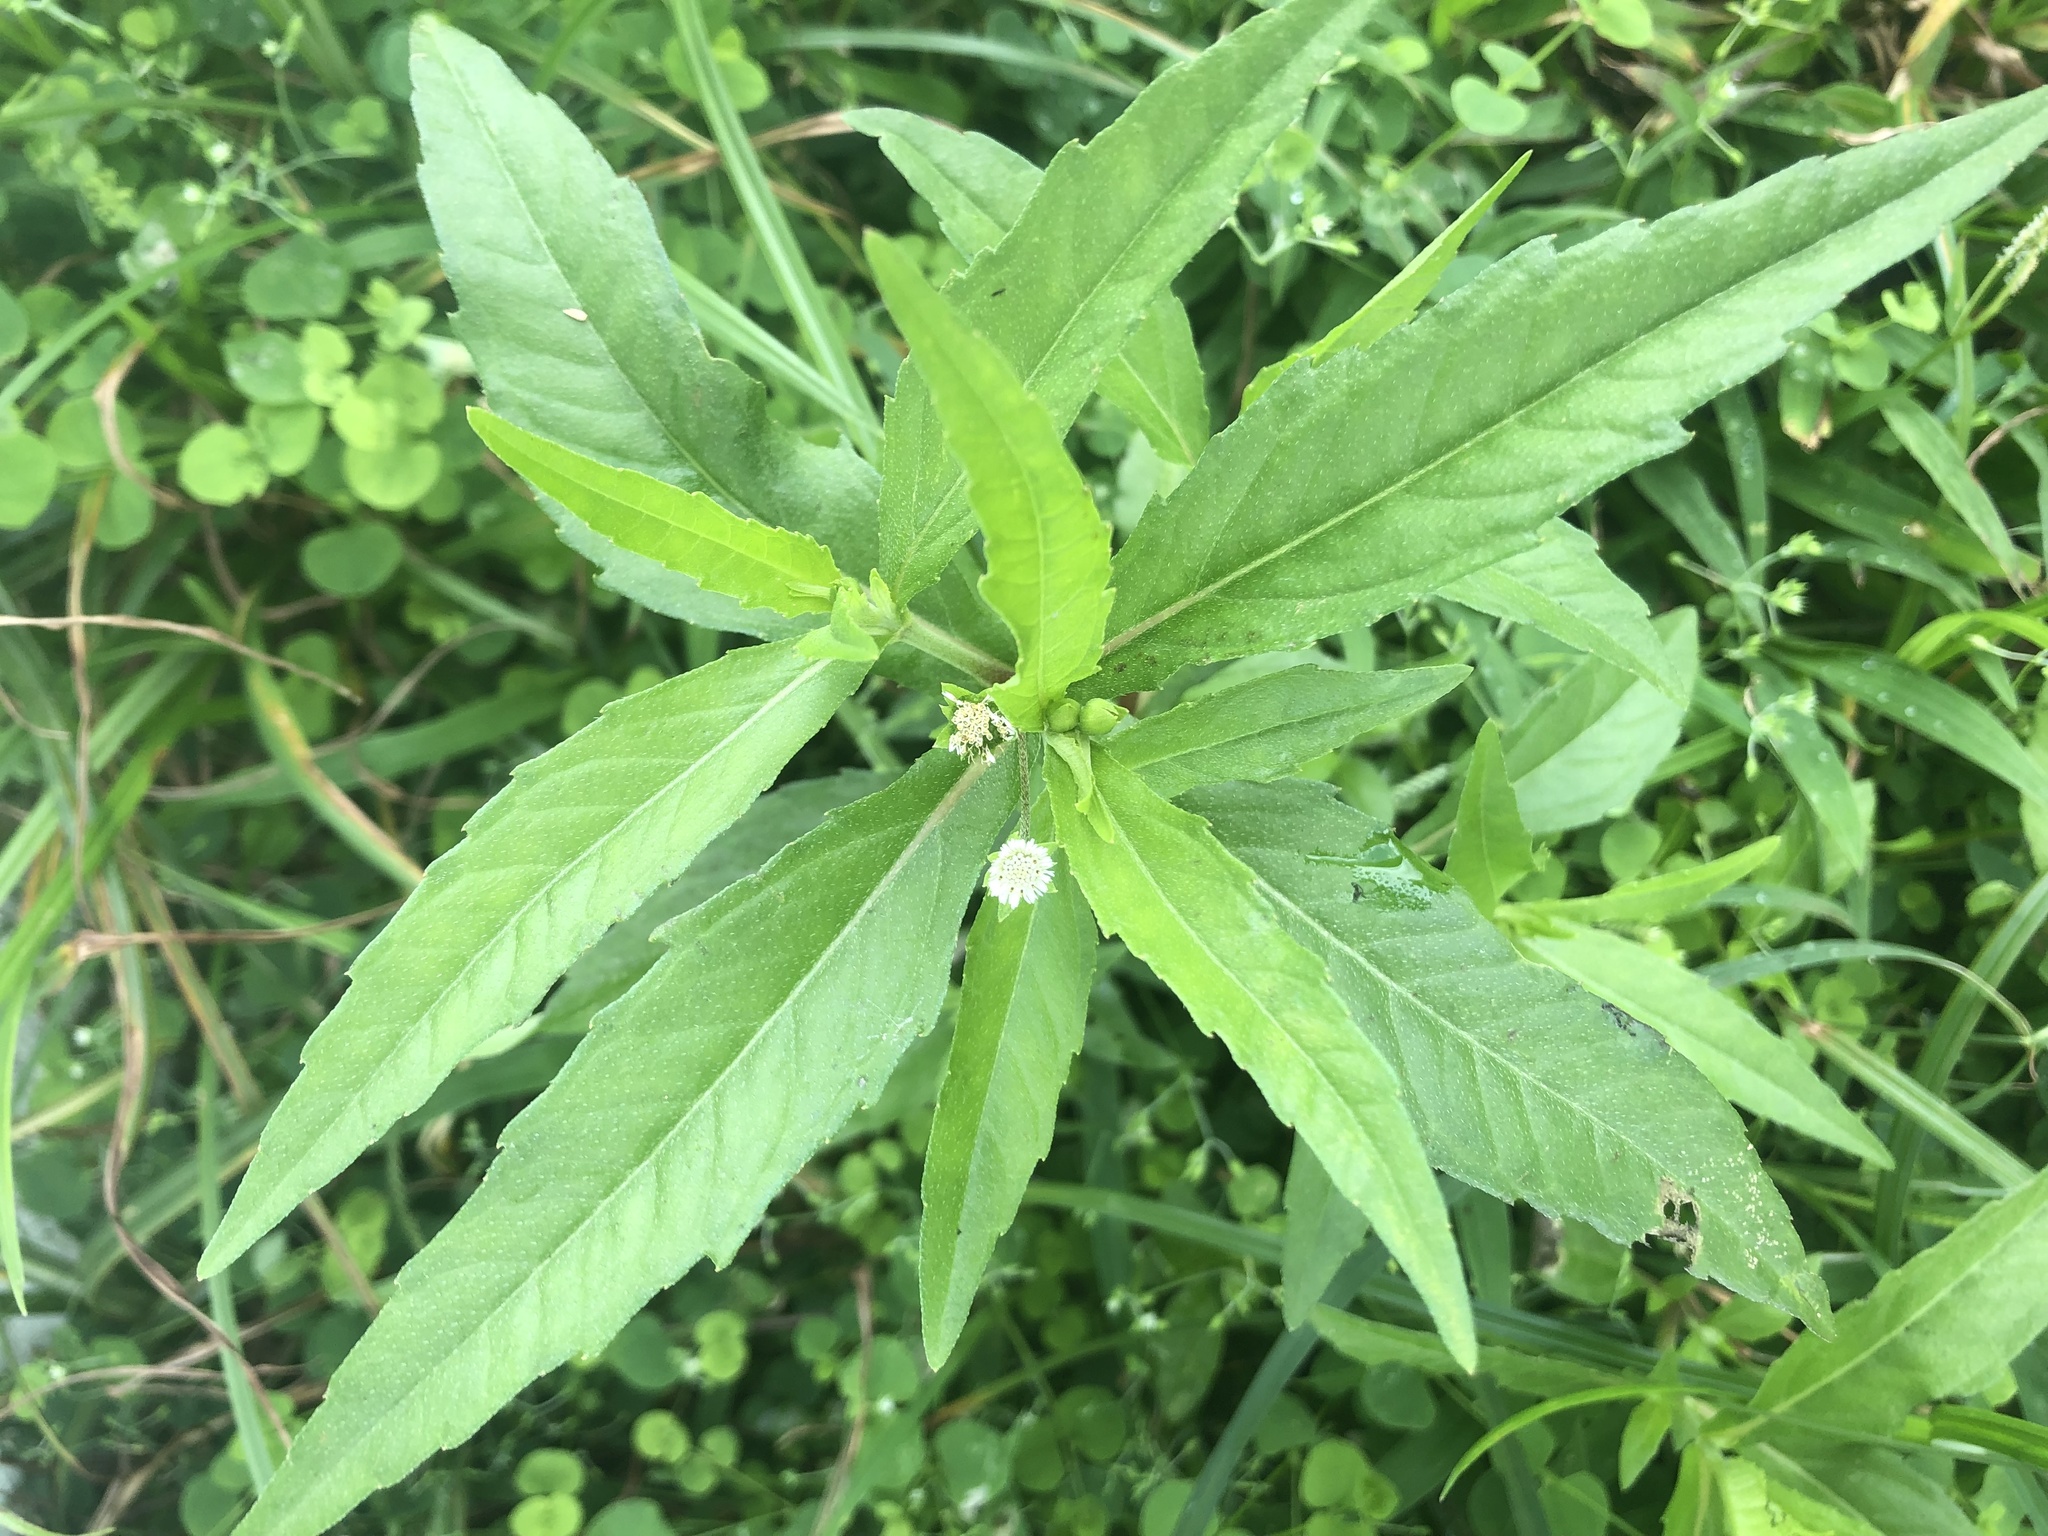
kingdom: Plantae
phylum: Tracheophyta
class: Magnoliopsida
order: Asterales
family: Asteraceae
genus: Eclipta
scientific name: Eclipta prostrata
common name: False daisy
